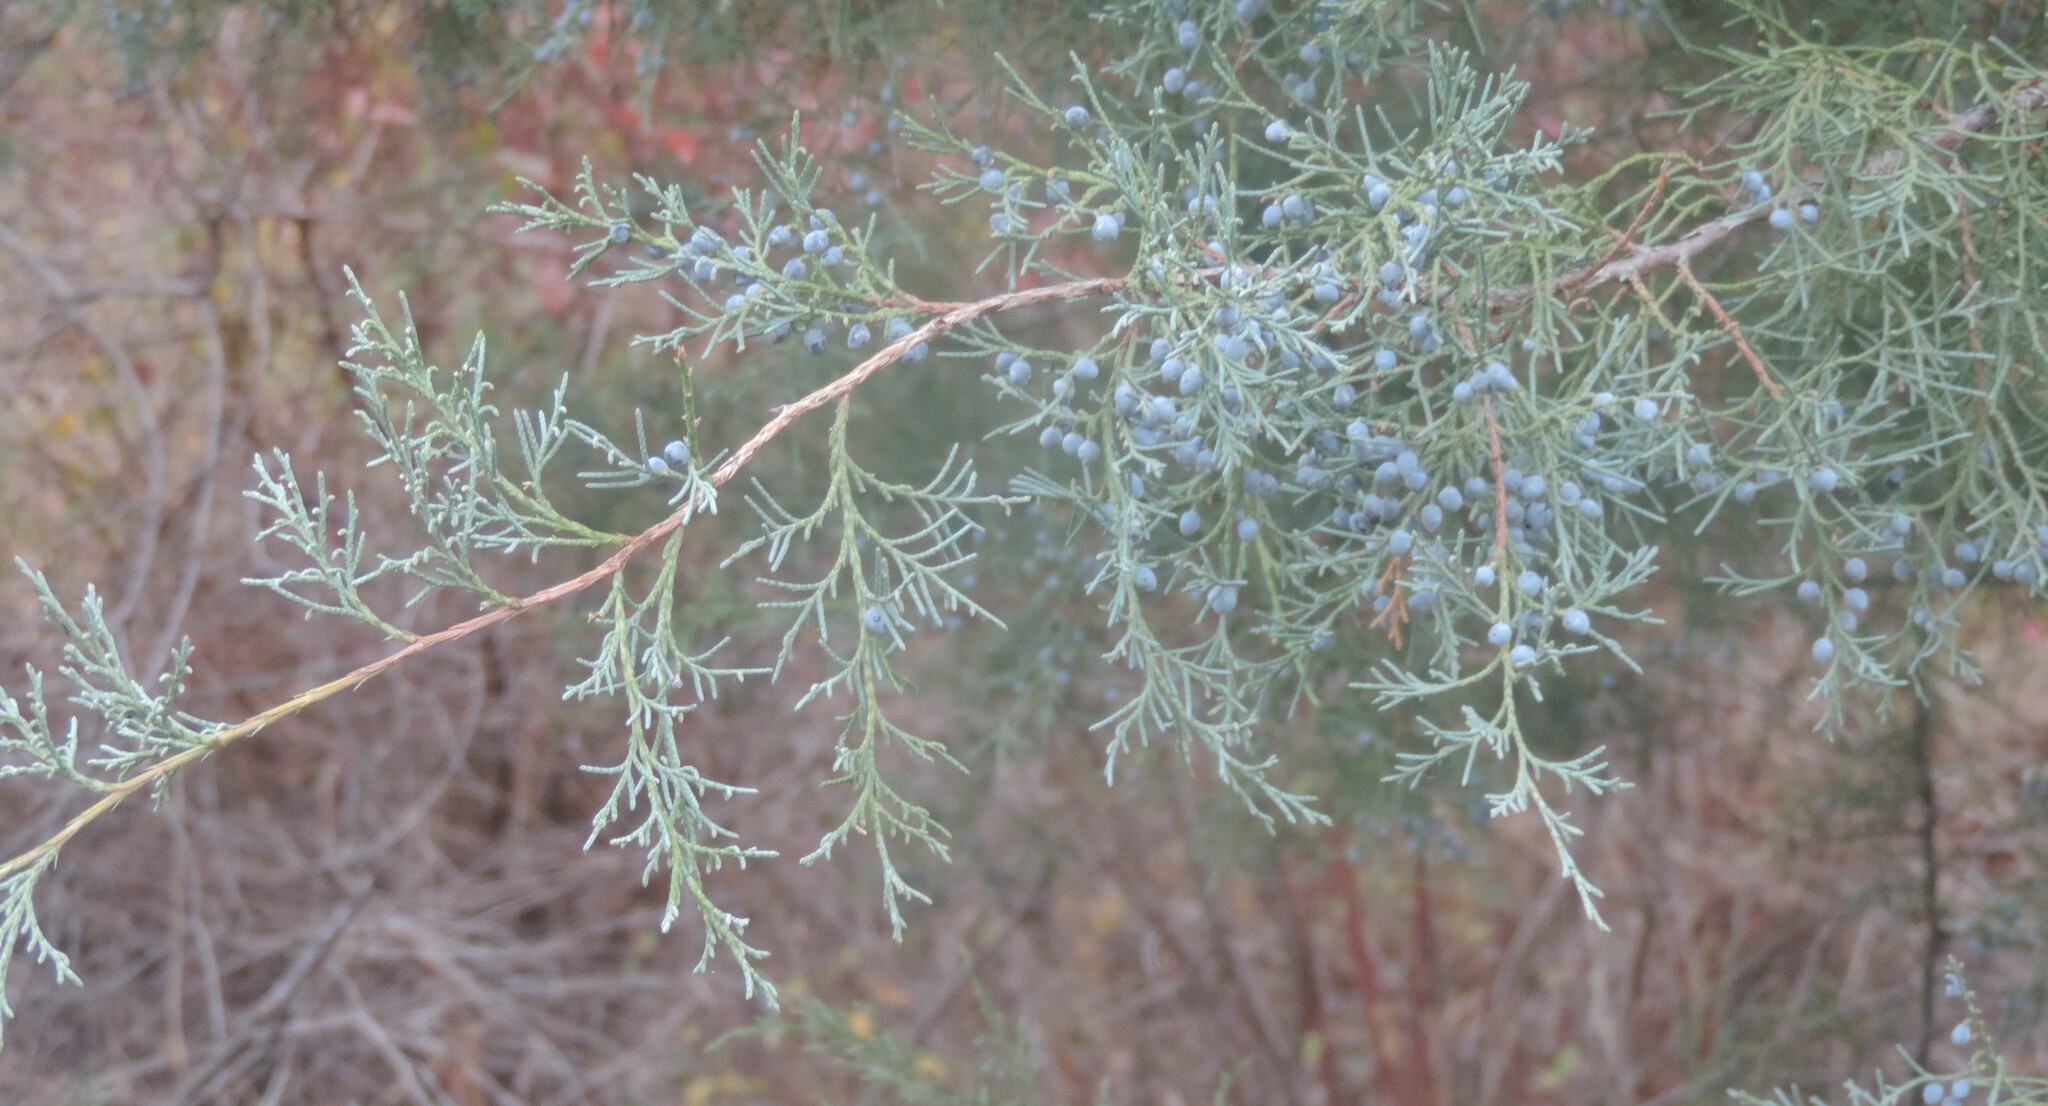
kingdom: Plantae
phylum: Tracheophyta
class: Pinopsida
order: Pinales
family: Cupressaceae
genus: Juniperus
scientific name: Juniperus scopulorum
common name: Rocky mountain juniper
